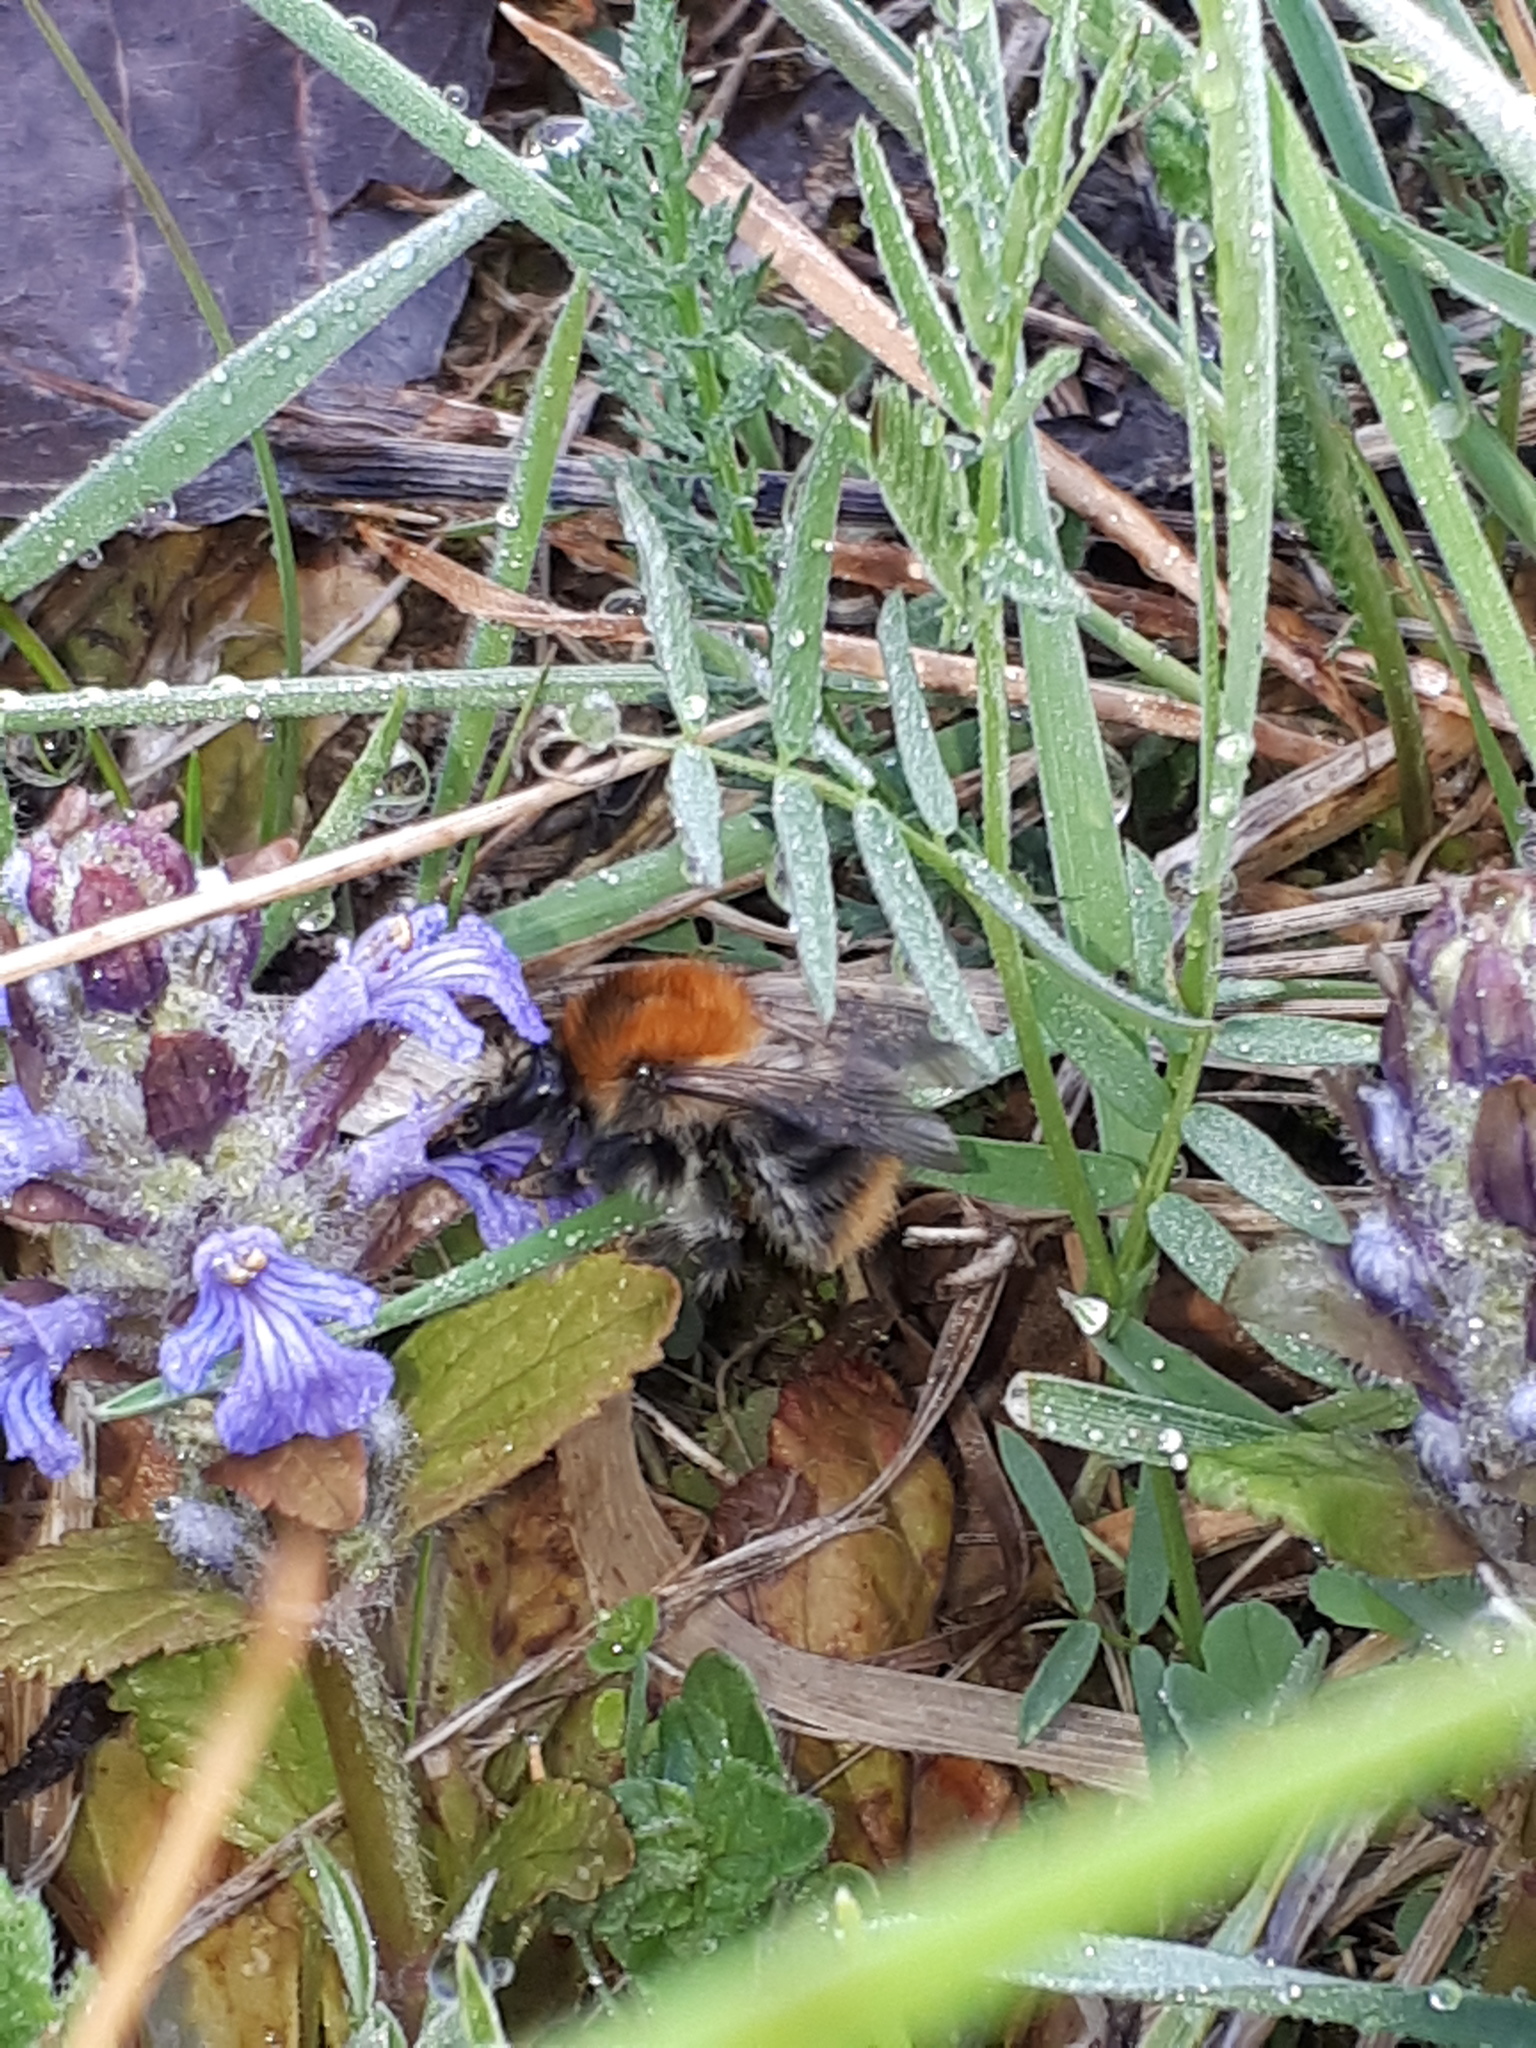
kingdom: Animalia
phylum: Arthropoda
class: Insecta
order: Hymenoptera
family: Apidae
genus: Bombus
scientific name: Bombus pascuorum
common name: Common carder bee
